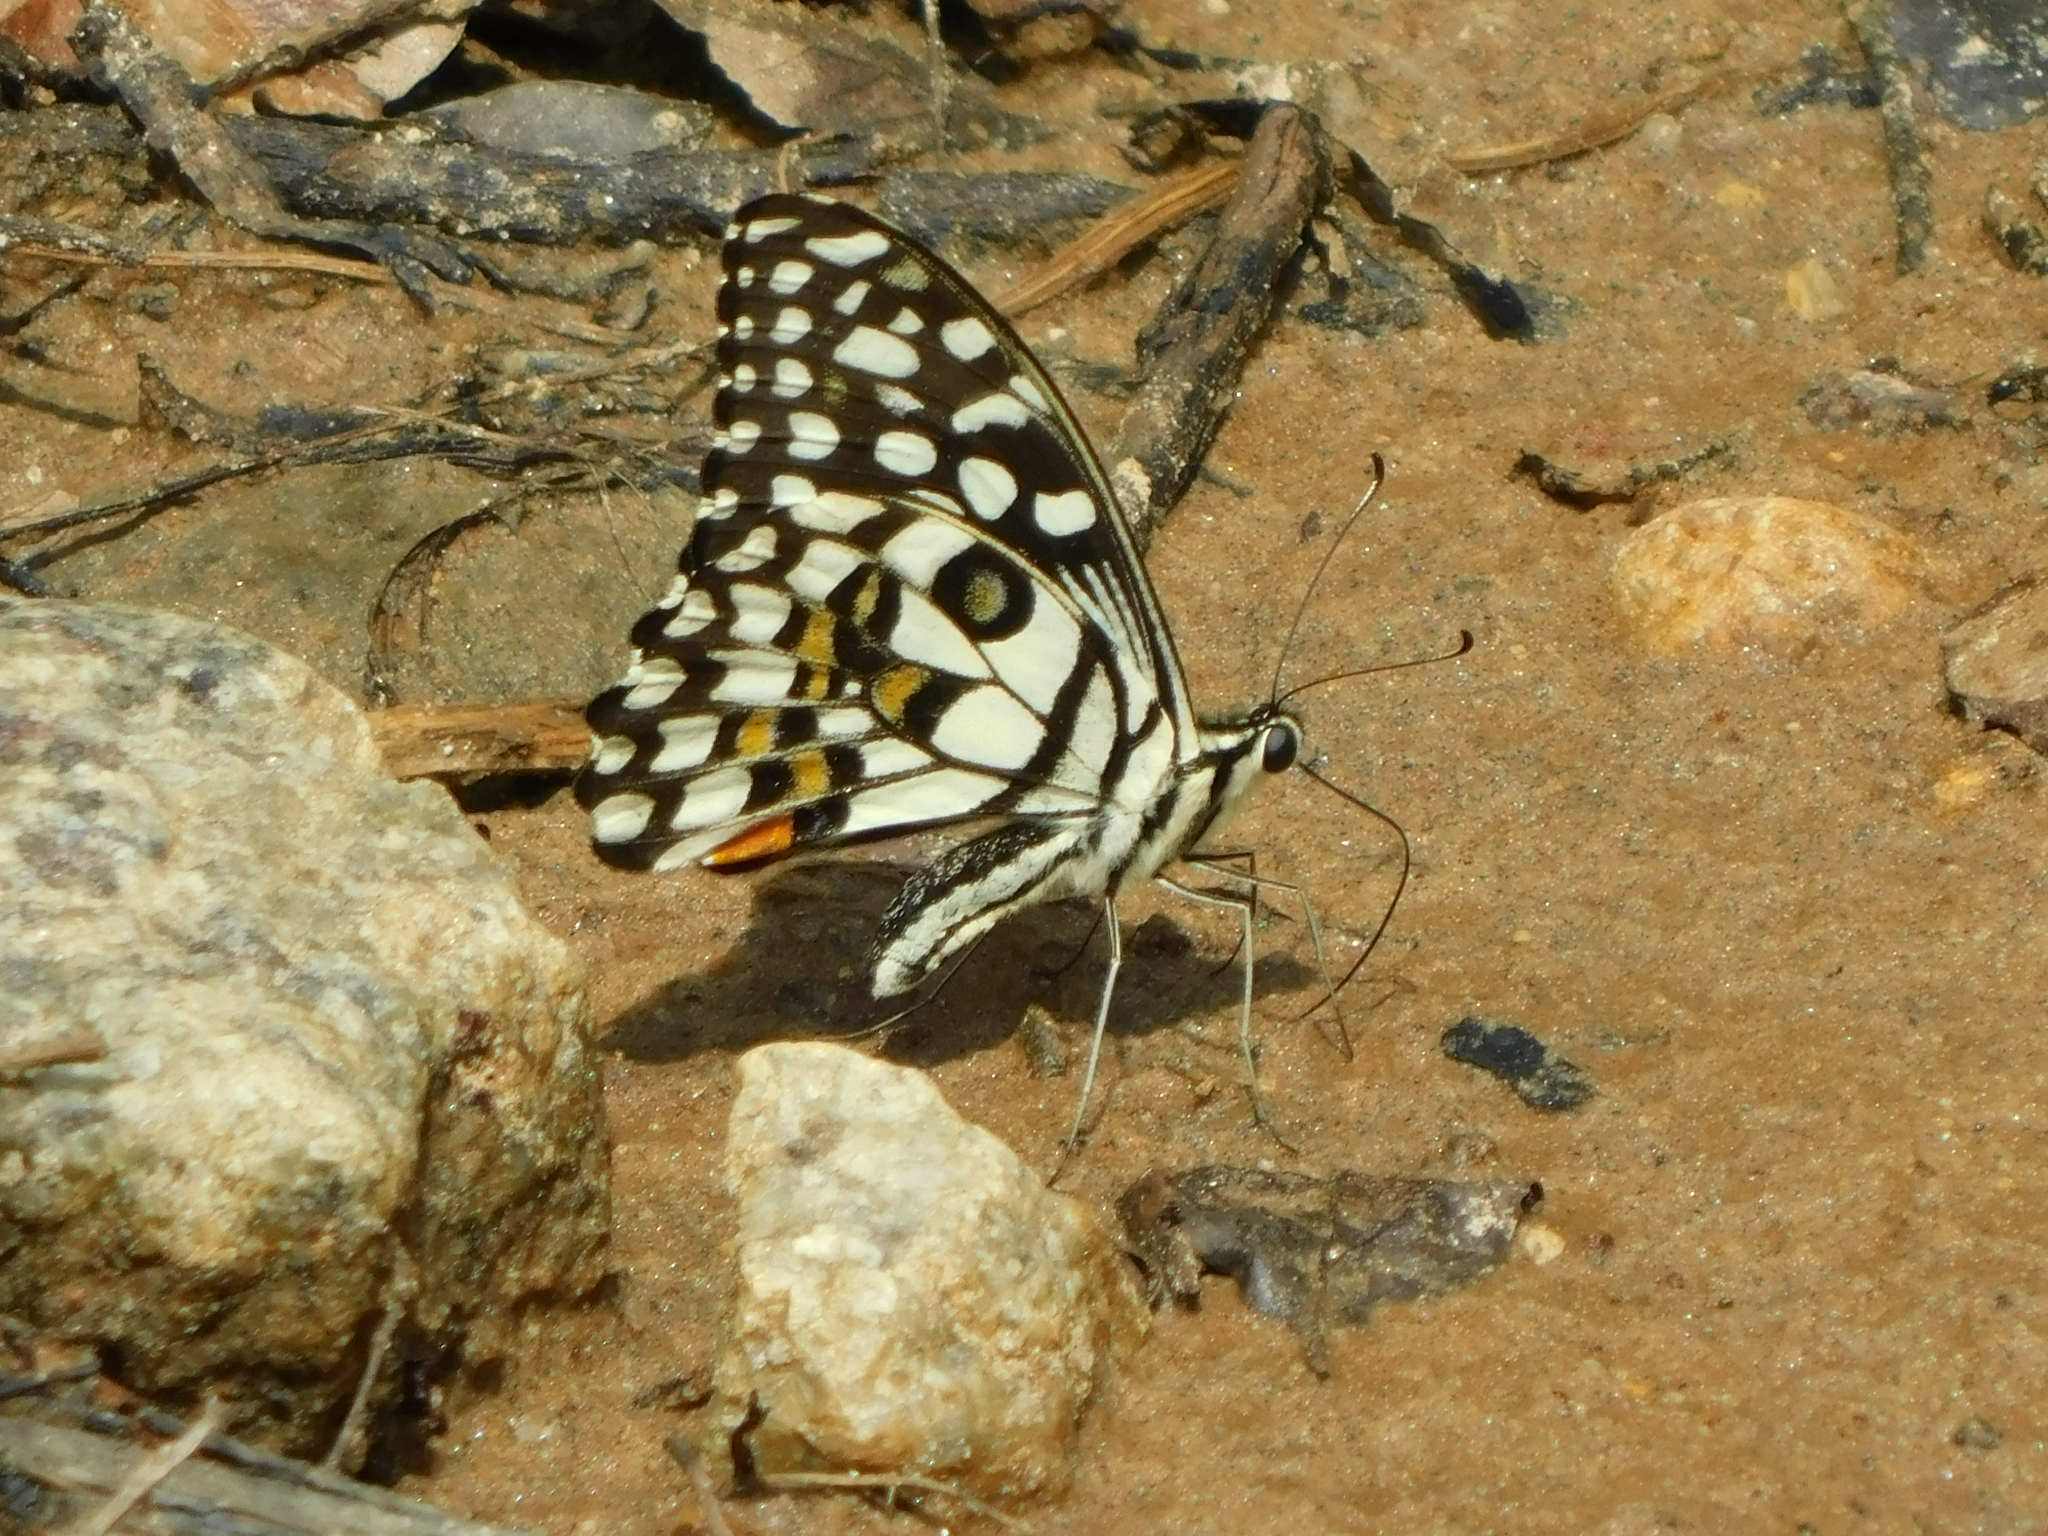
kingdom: Animalia
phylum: Arthropoda
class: Insecta
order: Lepidoptera
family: Papilionidae
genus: Papilio
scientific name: Papilio demoleus
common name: Lime butterfly
